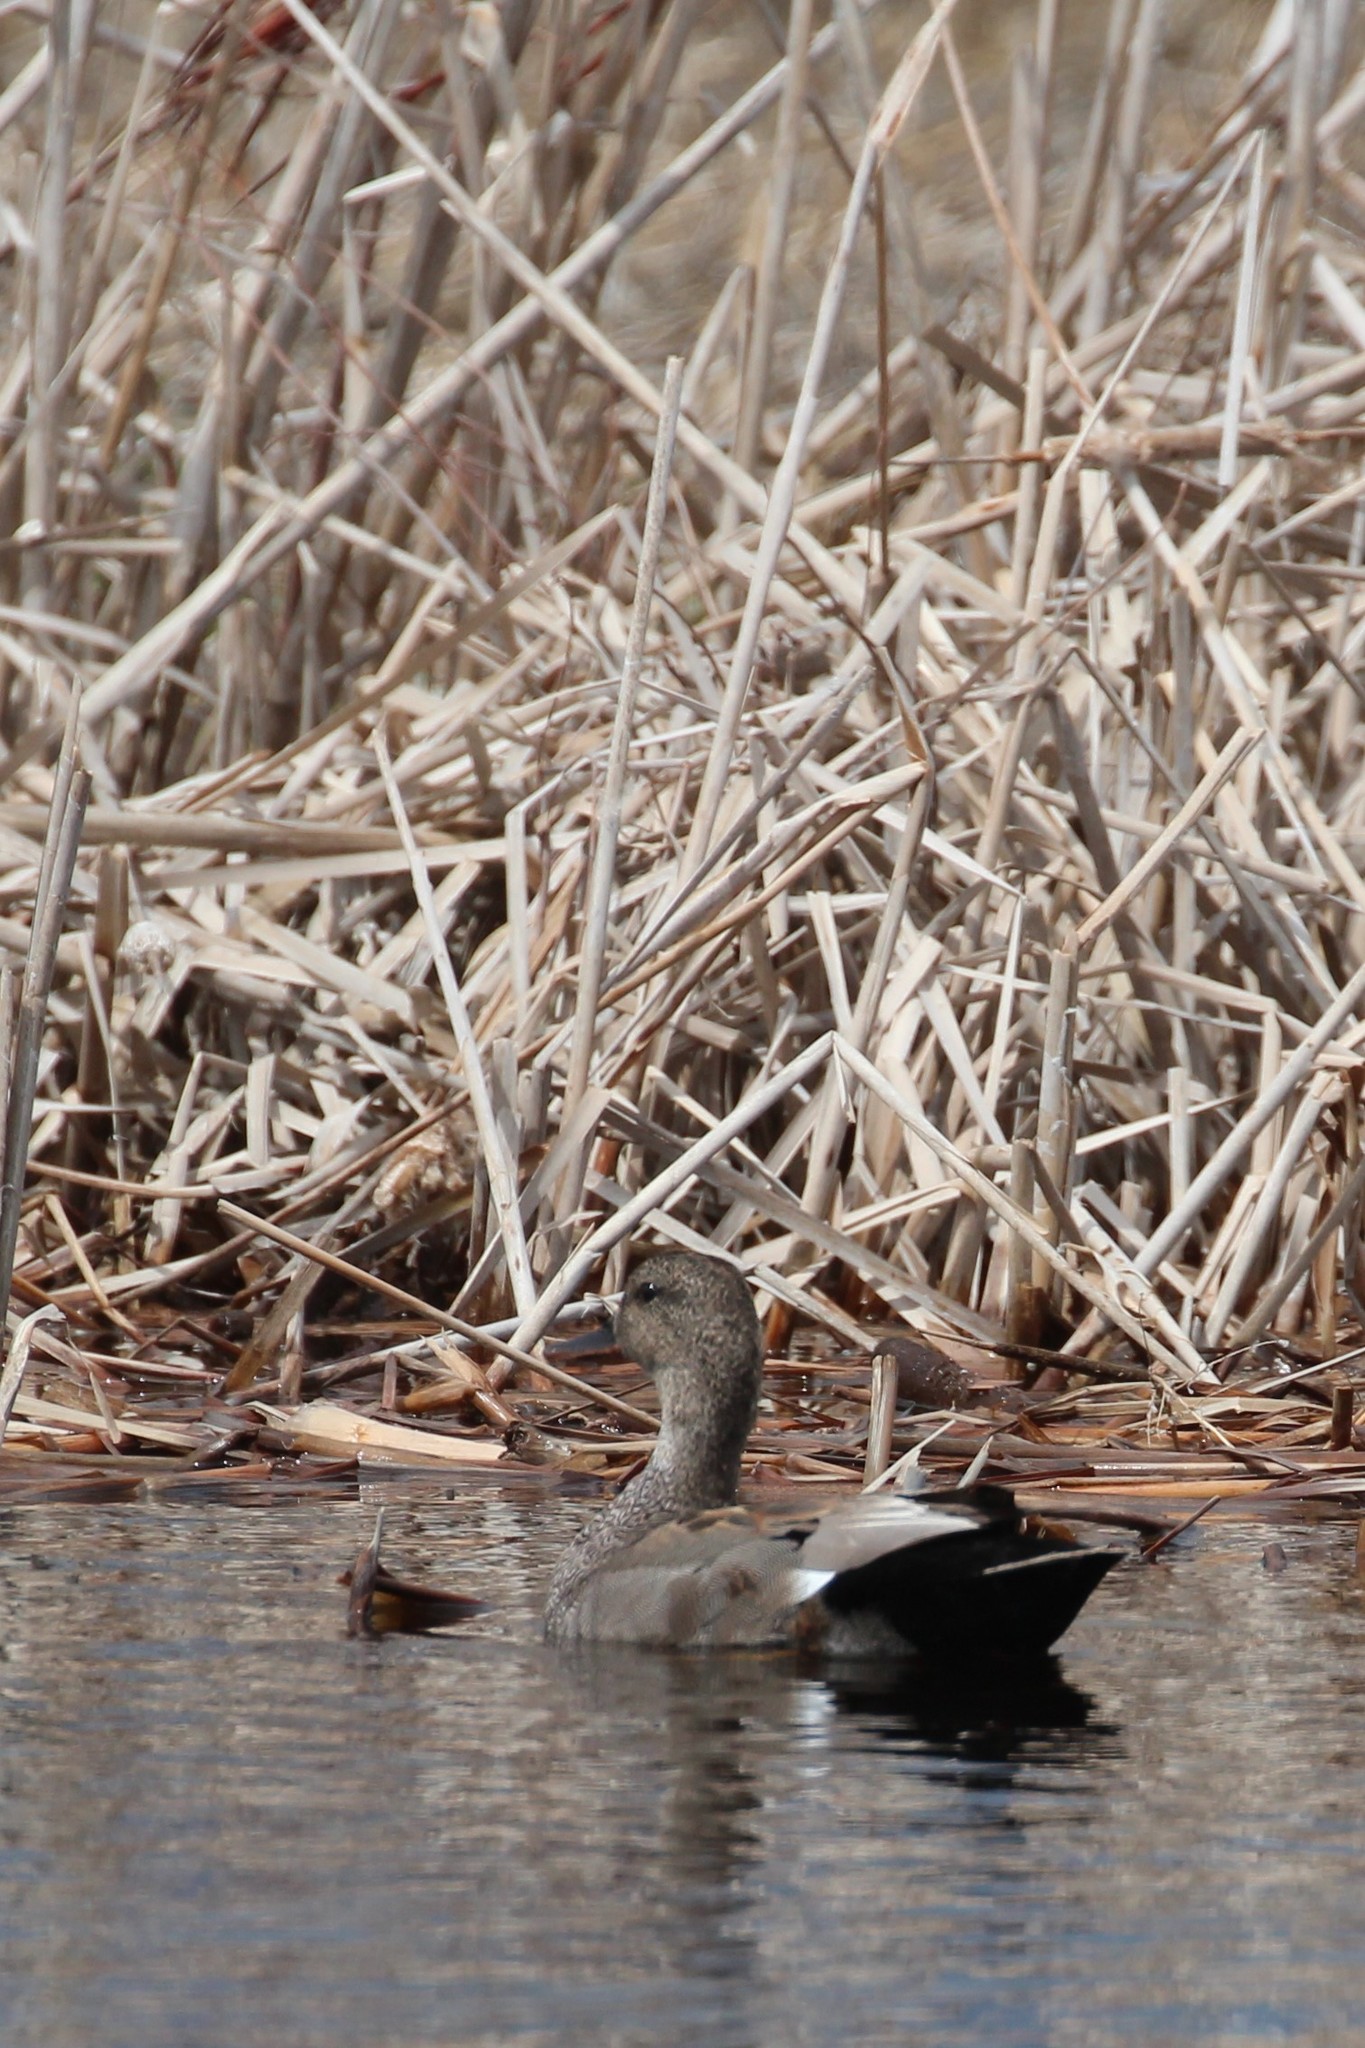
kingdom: Animalia
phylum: Chordata
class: Aves
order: Anseriformes
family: Anatidae
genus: Mareca
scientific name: Mareca strepera
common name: Gadwall
